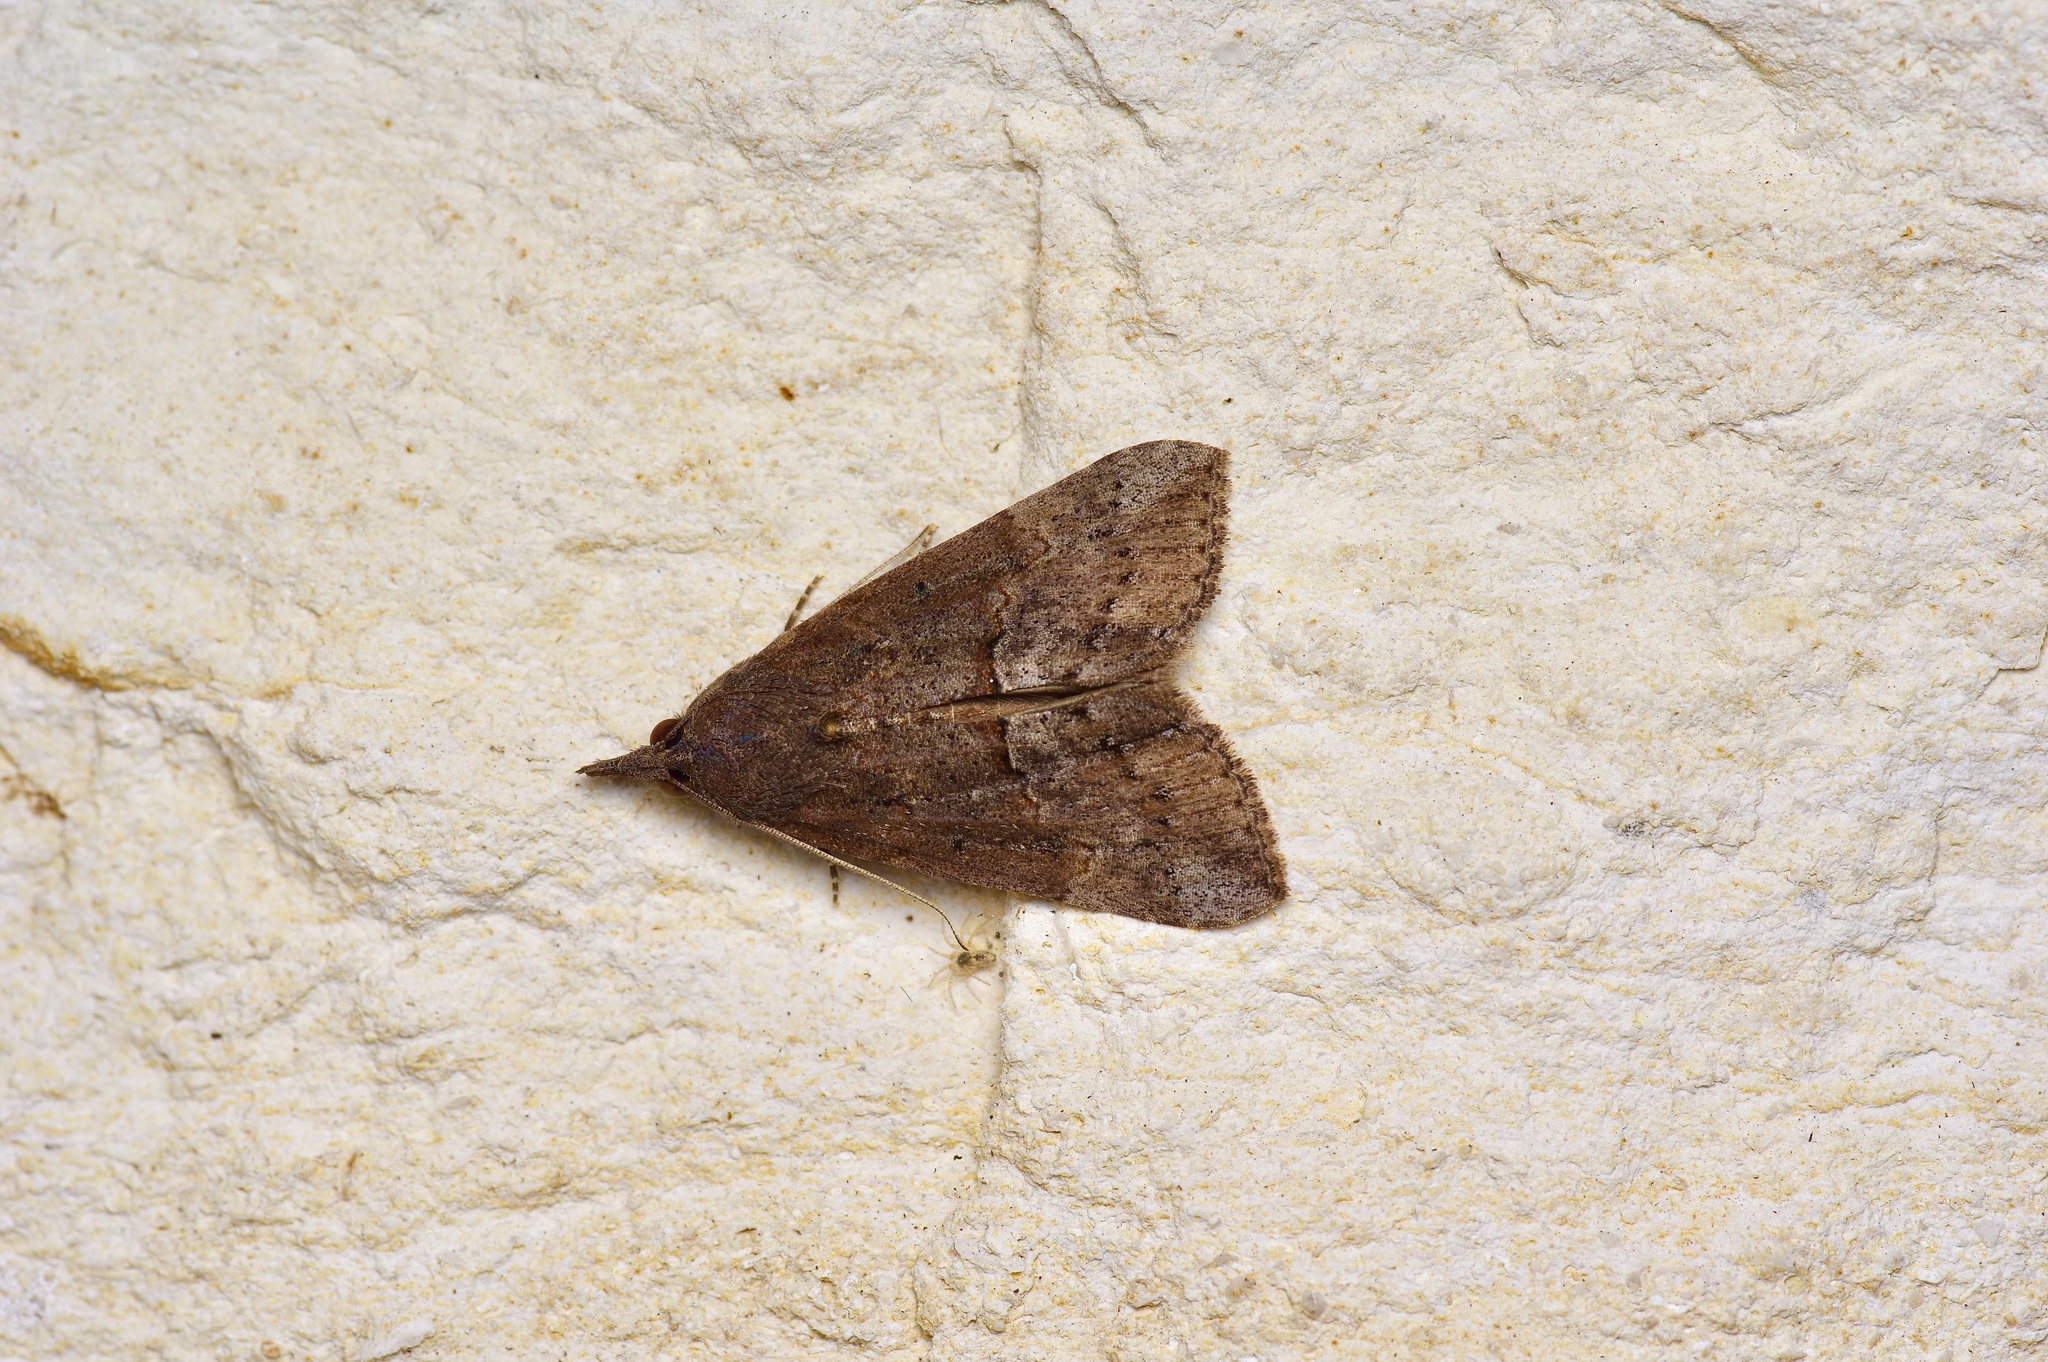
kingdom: Animalia
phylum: Arthropoda
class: Insecta
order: Lepidoptera
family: Erebidae
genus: Hypena
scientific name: Hypena scabra
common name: Green cloverworm
